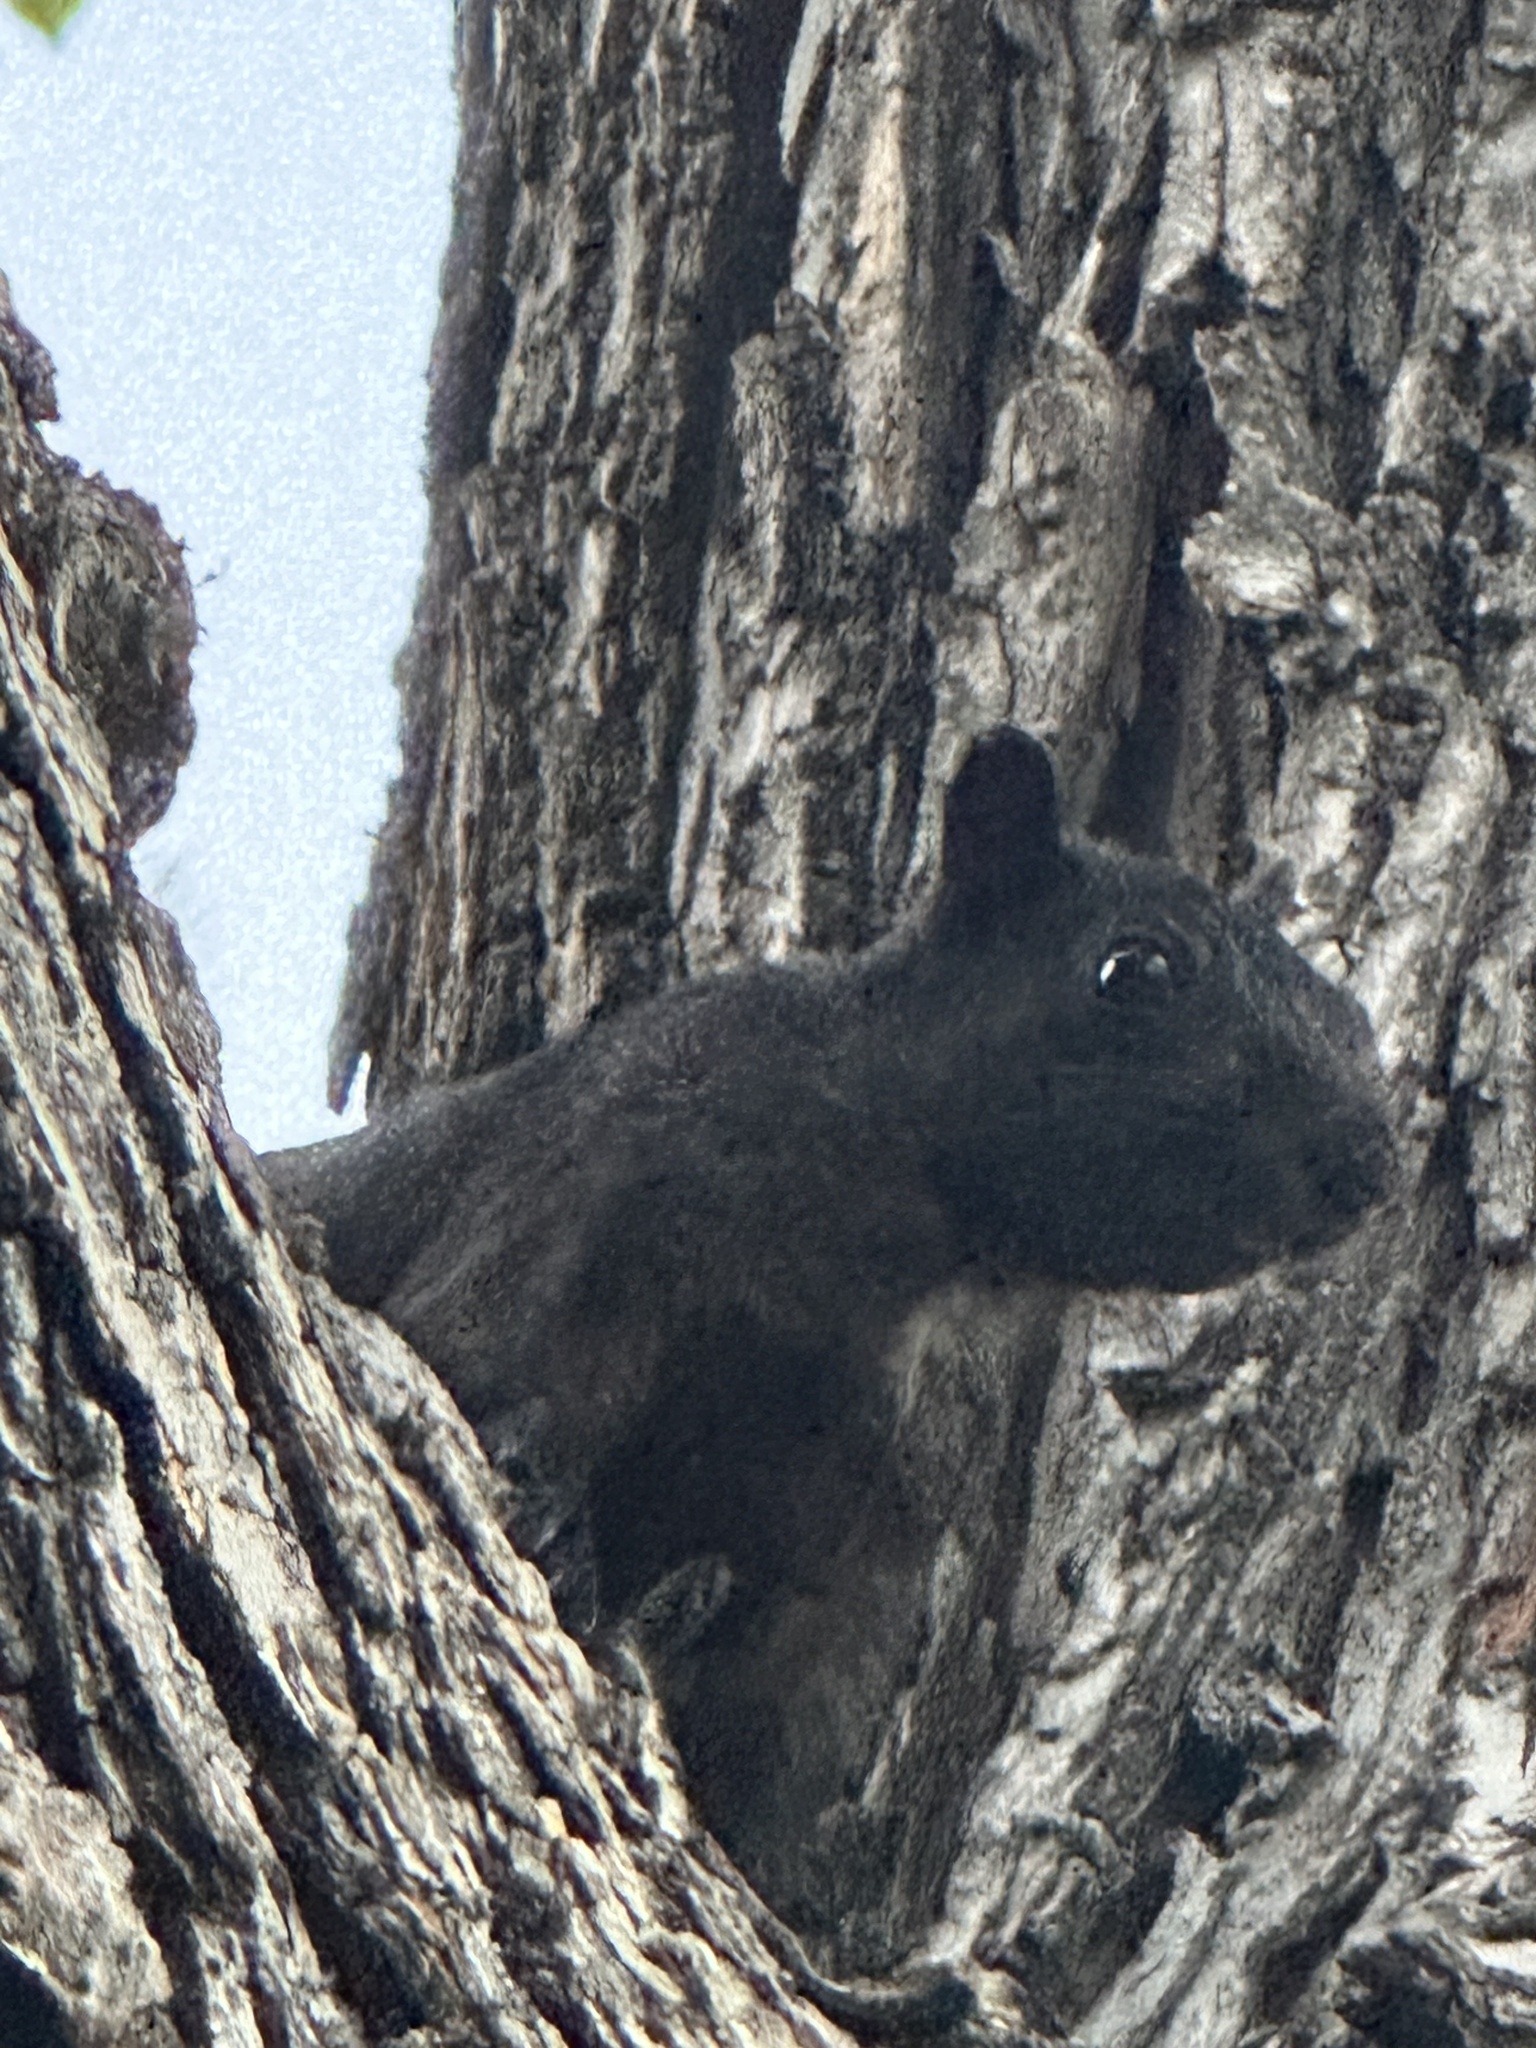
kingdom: Animalia
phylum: Chordata
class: Mammalia
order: Rodentia
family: Sciuridae
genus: Sciurus
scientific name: Sciurus carolinensis
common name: Eastern gray squirrel
